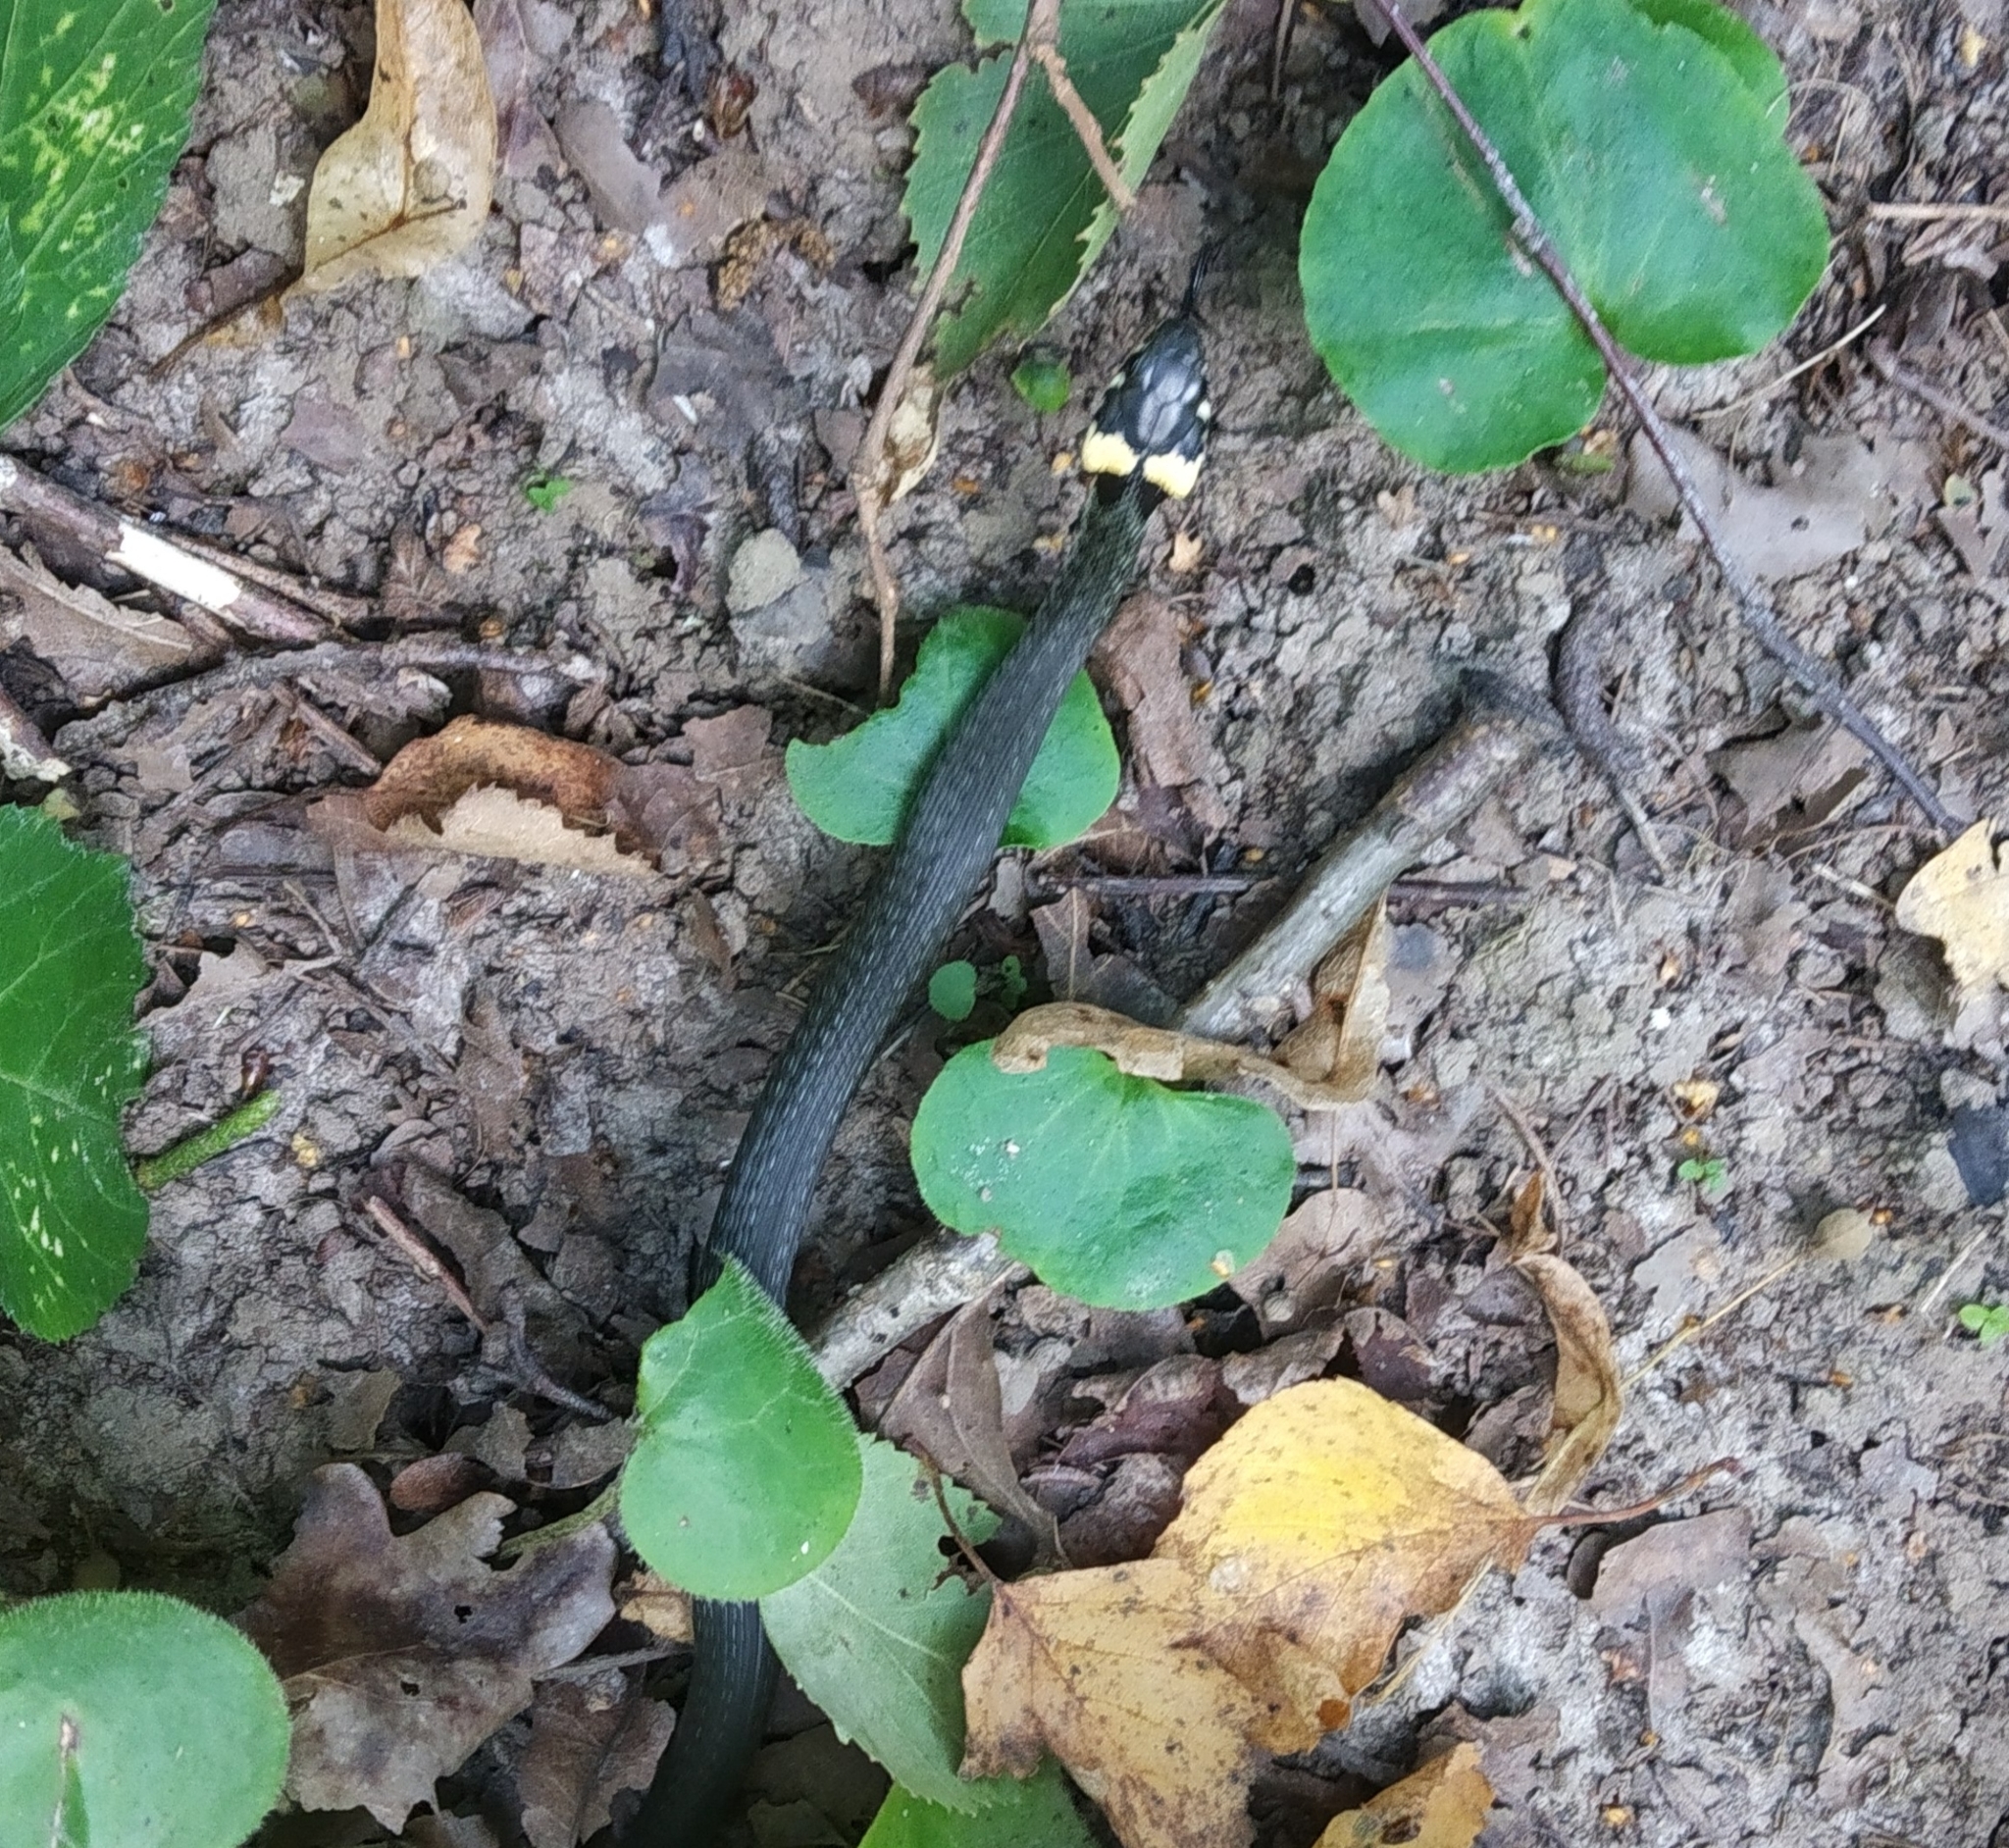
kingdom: Animalia
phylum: Chordata
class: Squamata
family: Colubridae
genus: Natrix
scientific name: Natrix natrix
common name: Grass snake
